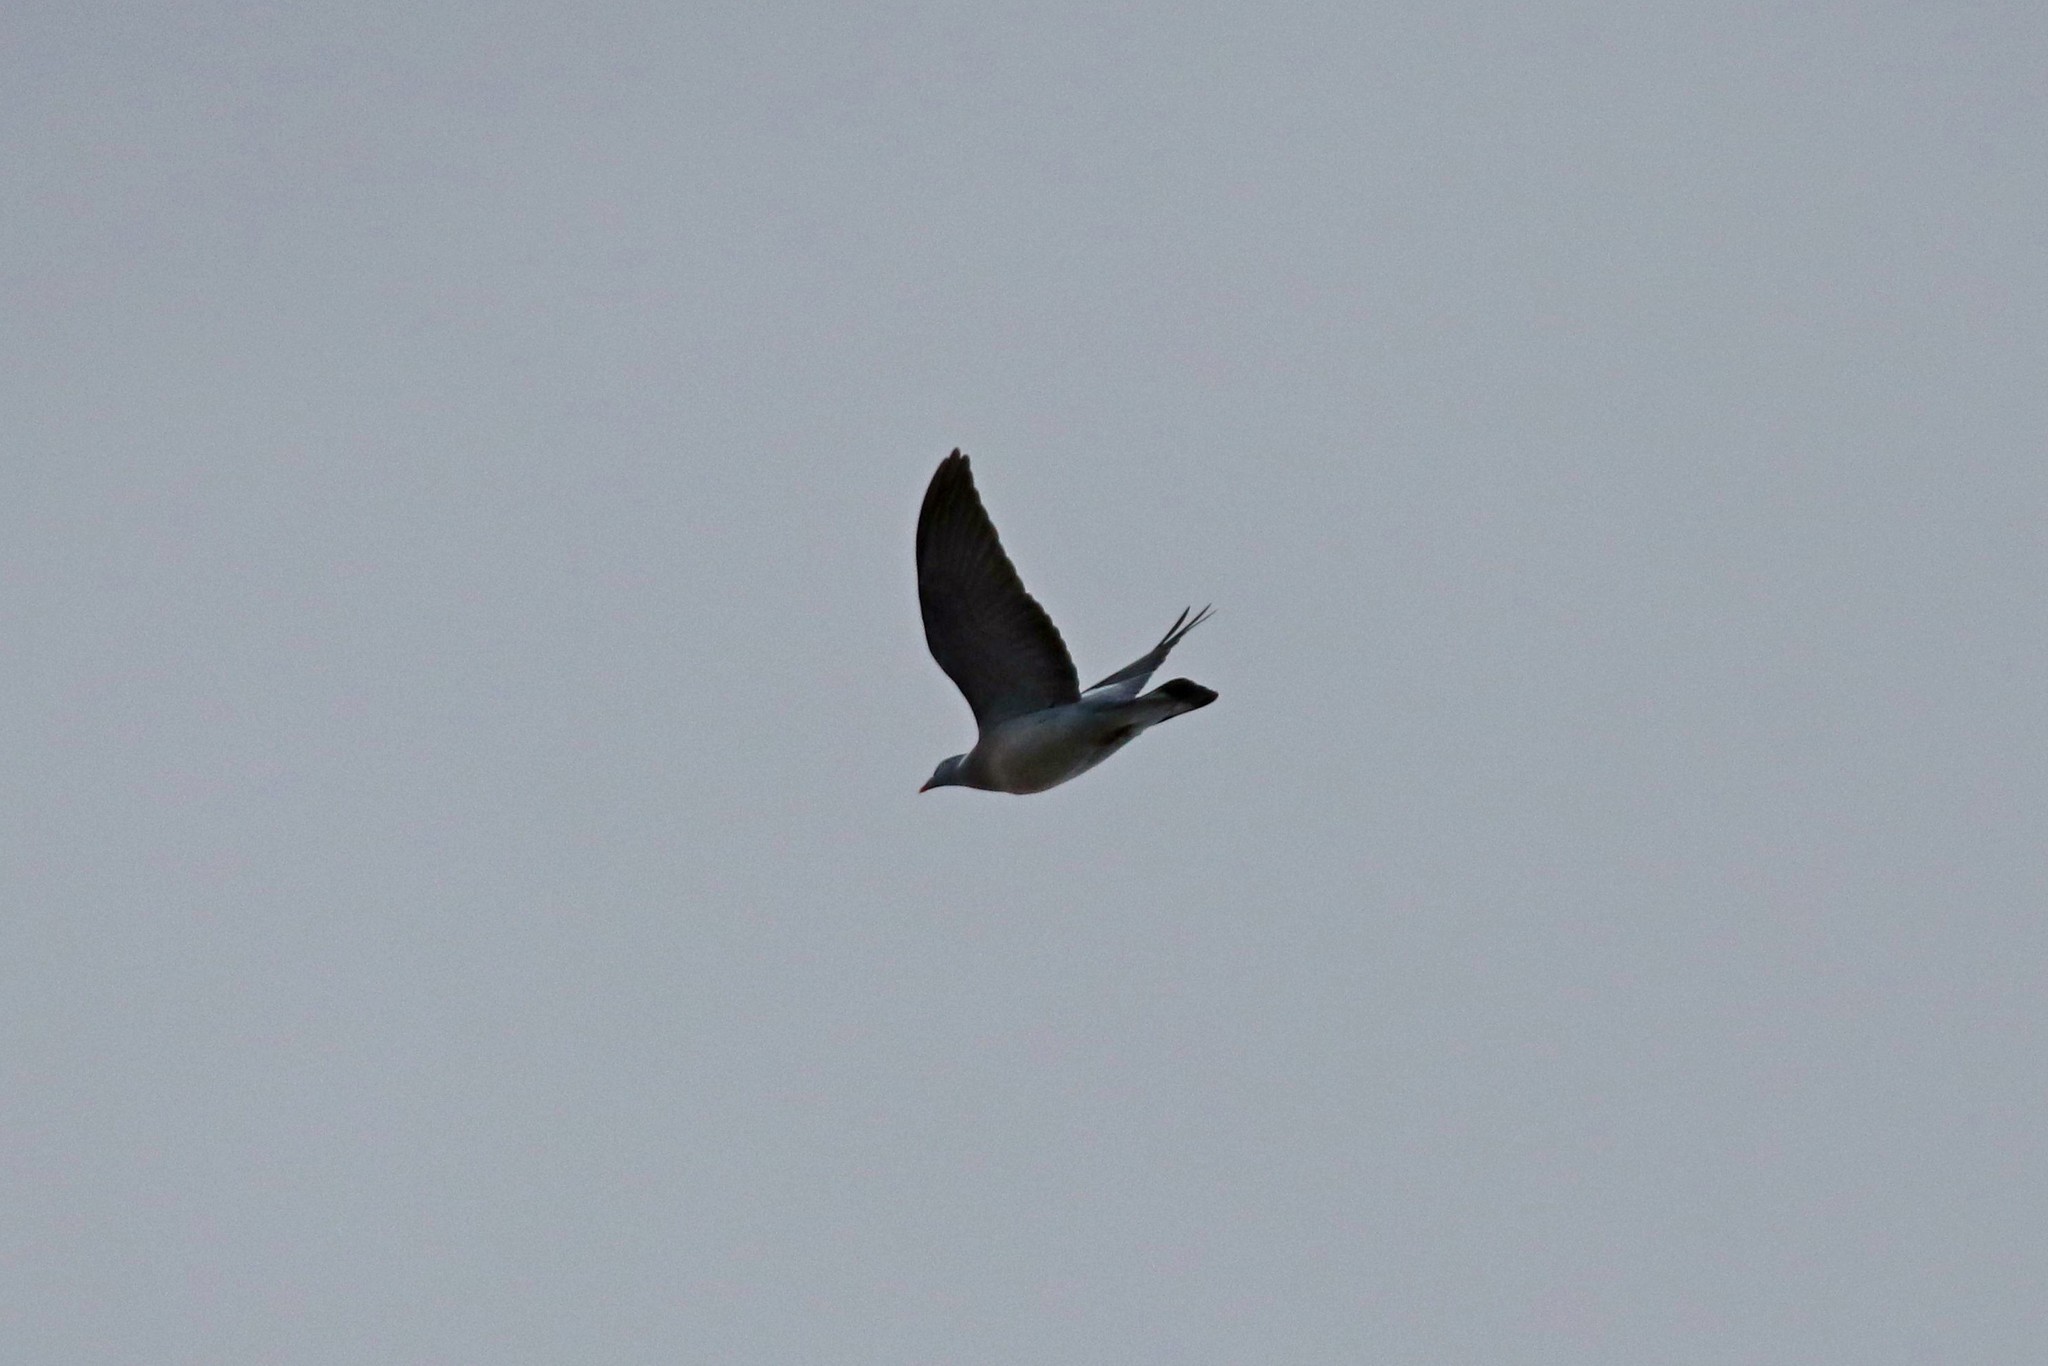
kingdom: Animalia
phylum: Chordata
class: Aves
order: Columbiformes
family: Columbidae
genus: Columba
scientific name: Columba palumbus
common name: Common wood pigeon
